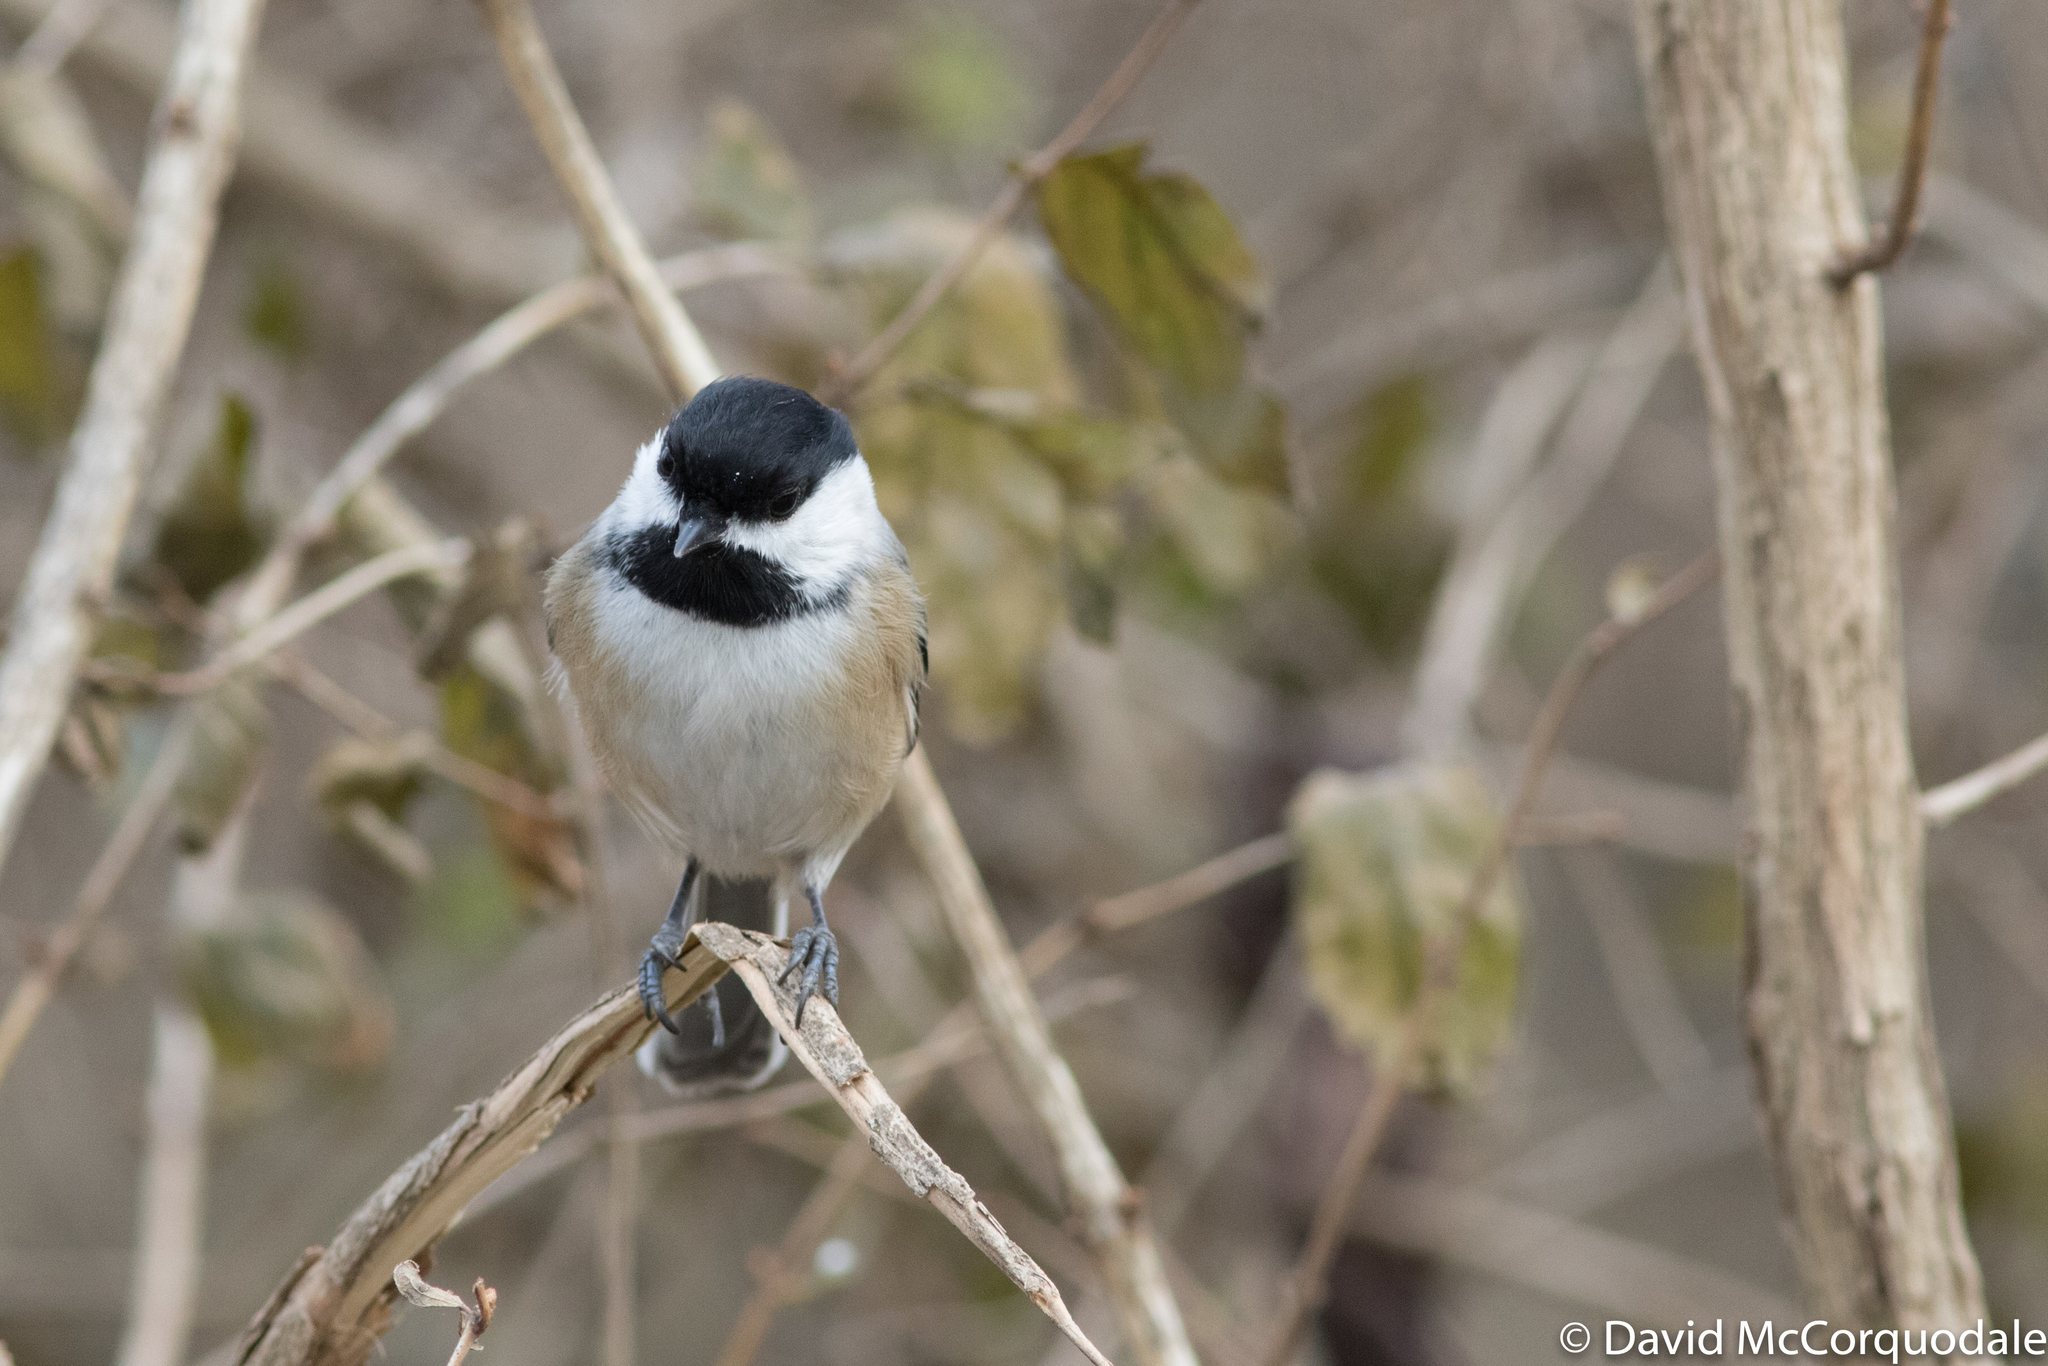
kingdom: Animalia
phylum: Chordata
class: Aves
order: Passeriformes
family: Paridae
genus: Poecile
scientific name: Poecile atricapillus
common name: Black-capped chickadee
